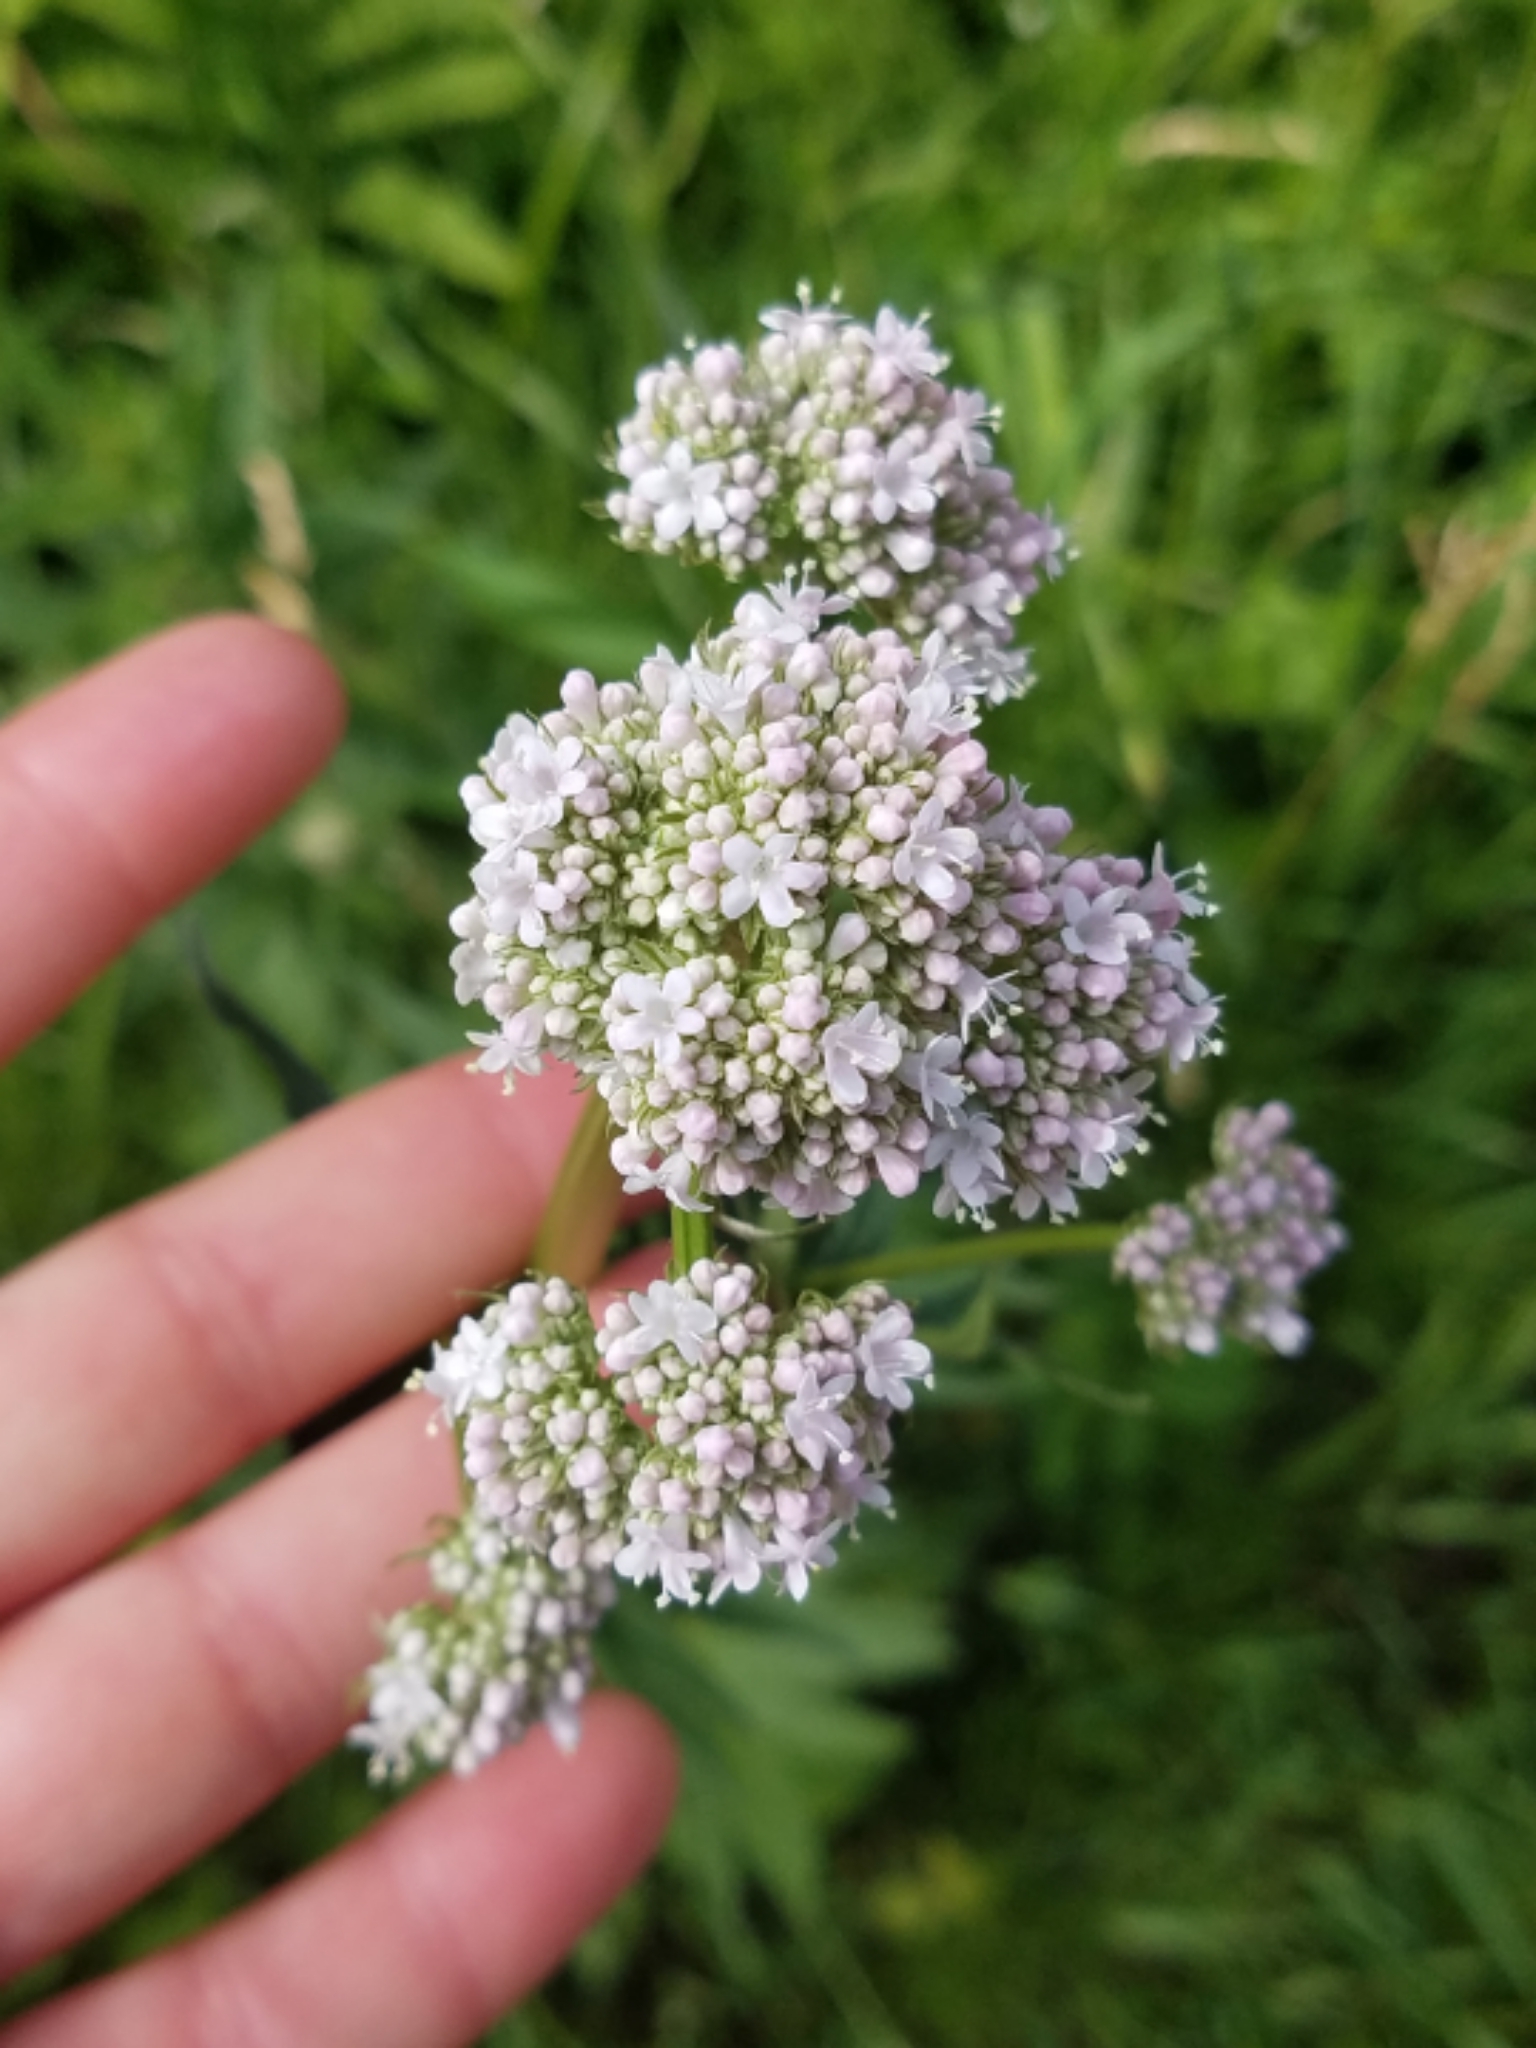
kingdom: Plantae
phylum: Tracheophyta
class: Magnoliopsida
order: Dipsacales
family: Caprifoliaceae
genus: Valeriana
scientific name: Valeriana officinalis
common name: Common valerian
